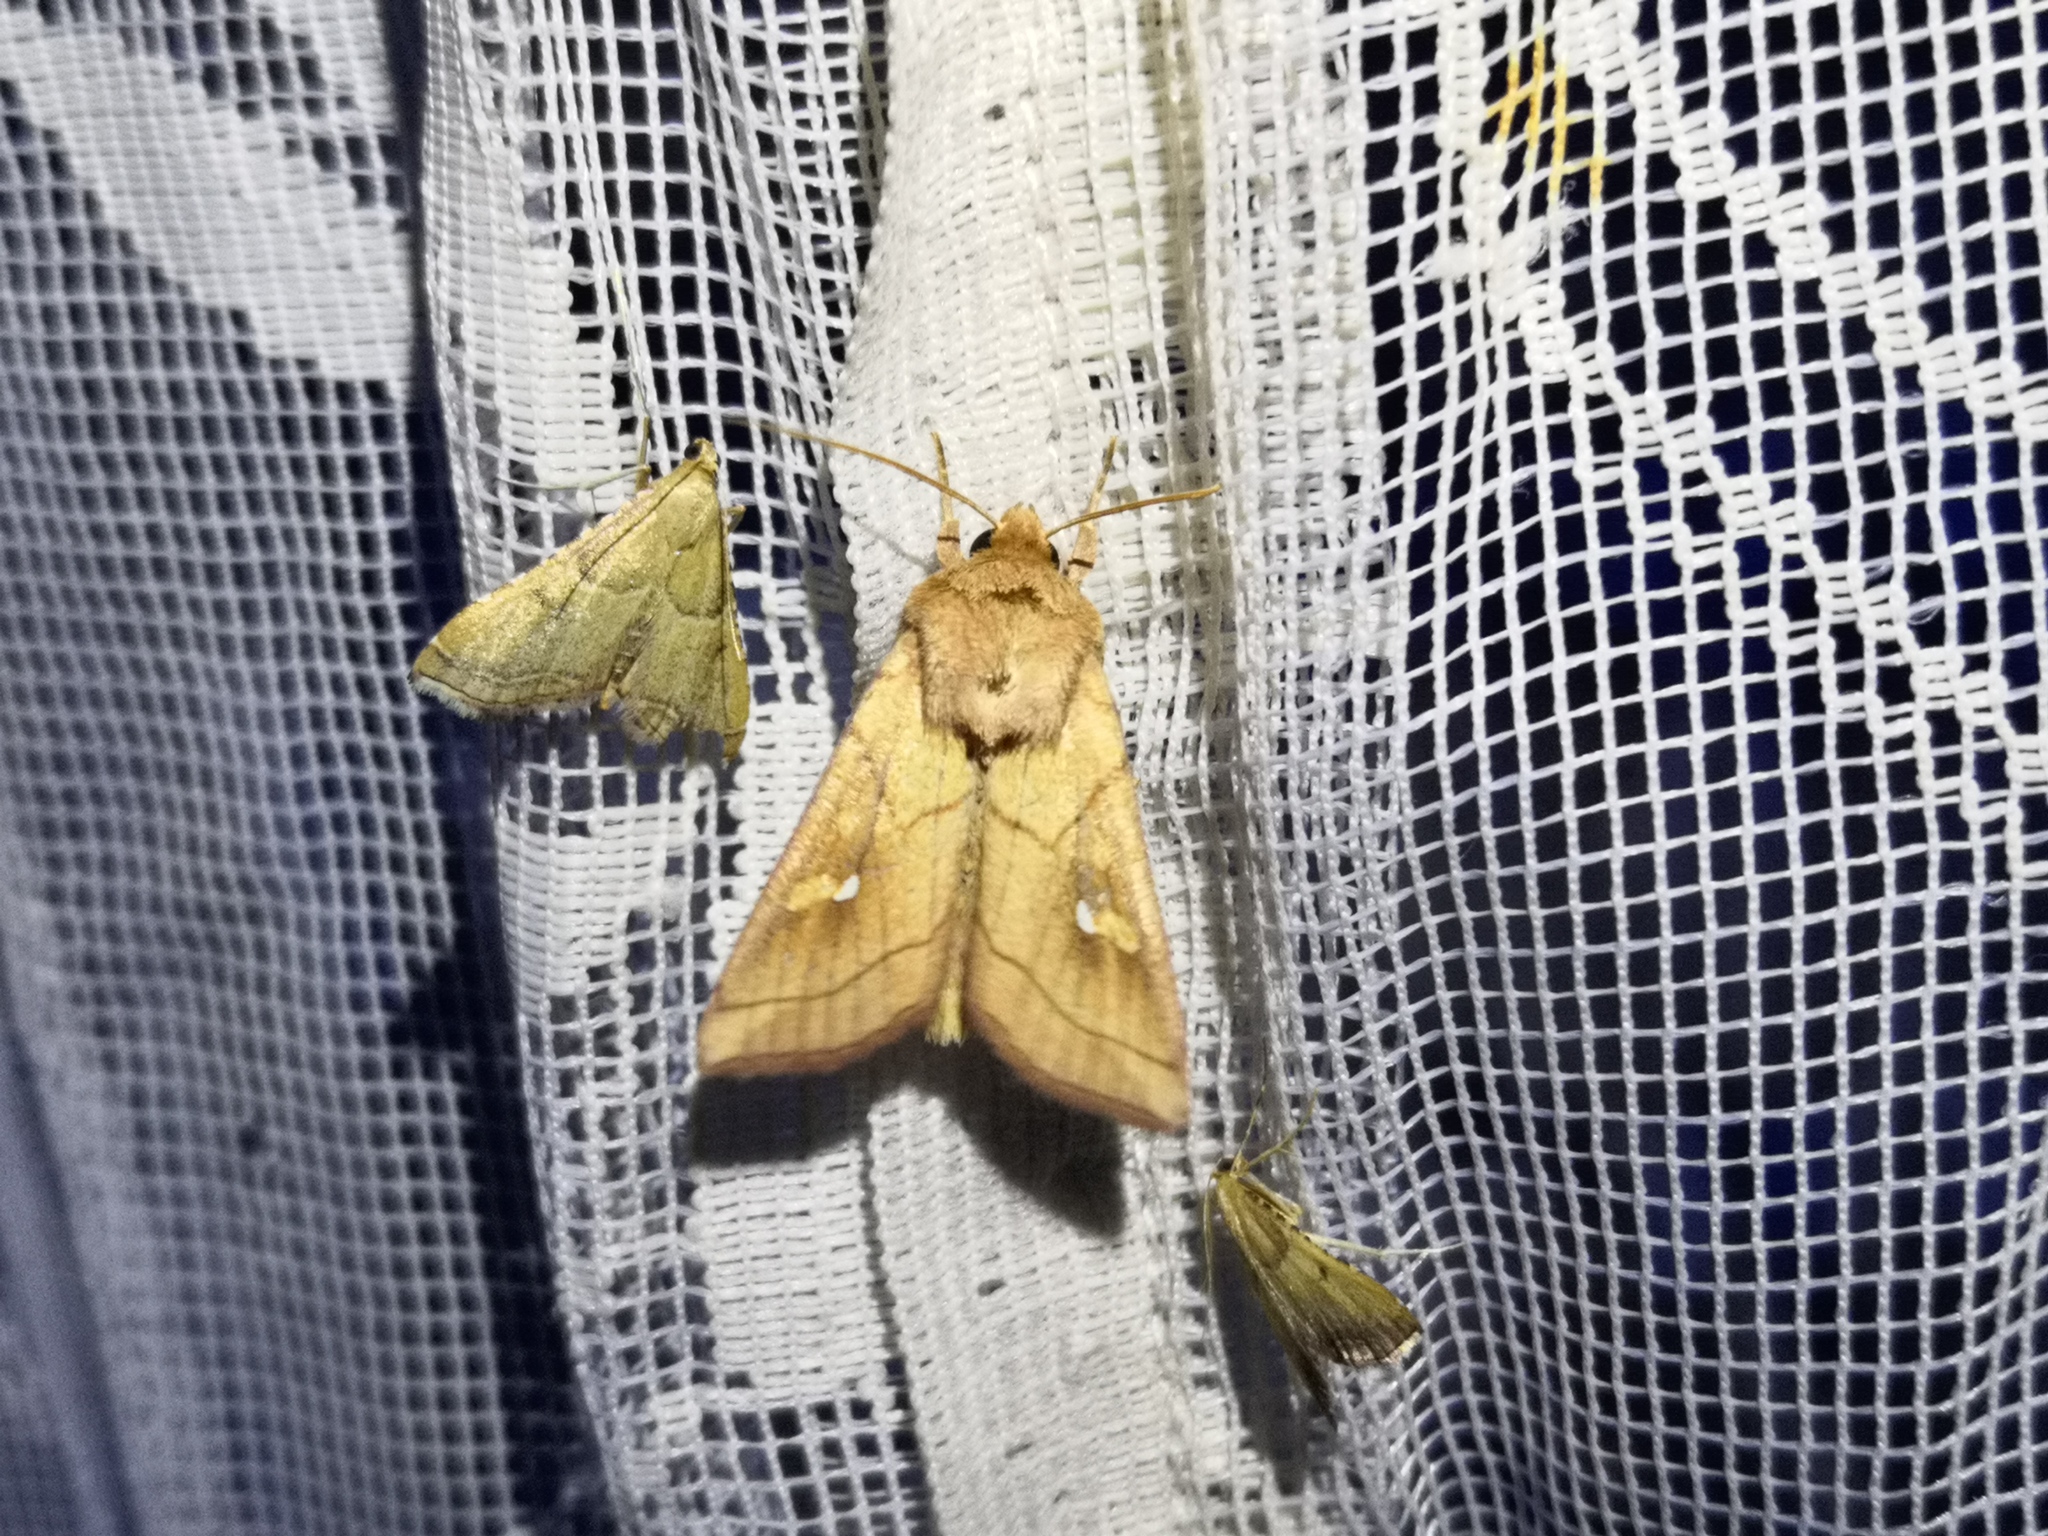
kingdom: Animalia
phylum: Arthropoda
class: Insecta
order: Lepidoptera
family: Noctuidae
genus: Mythimna
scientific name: Mythimna conigera
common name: Brown-line bright-eye
